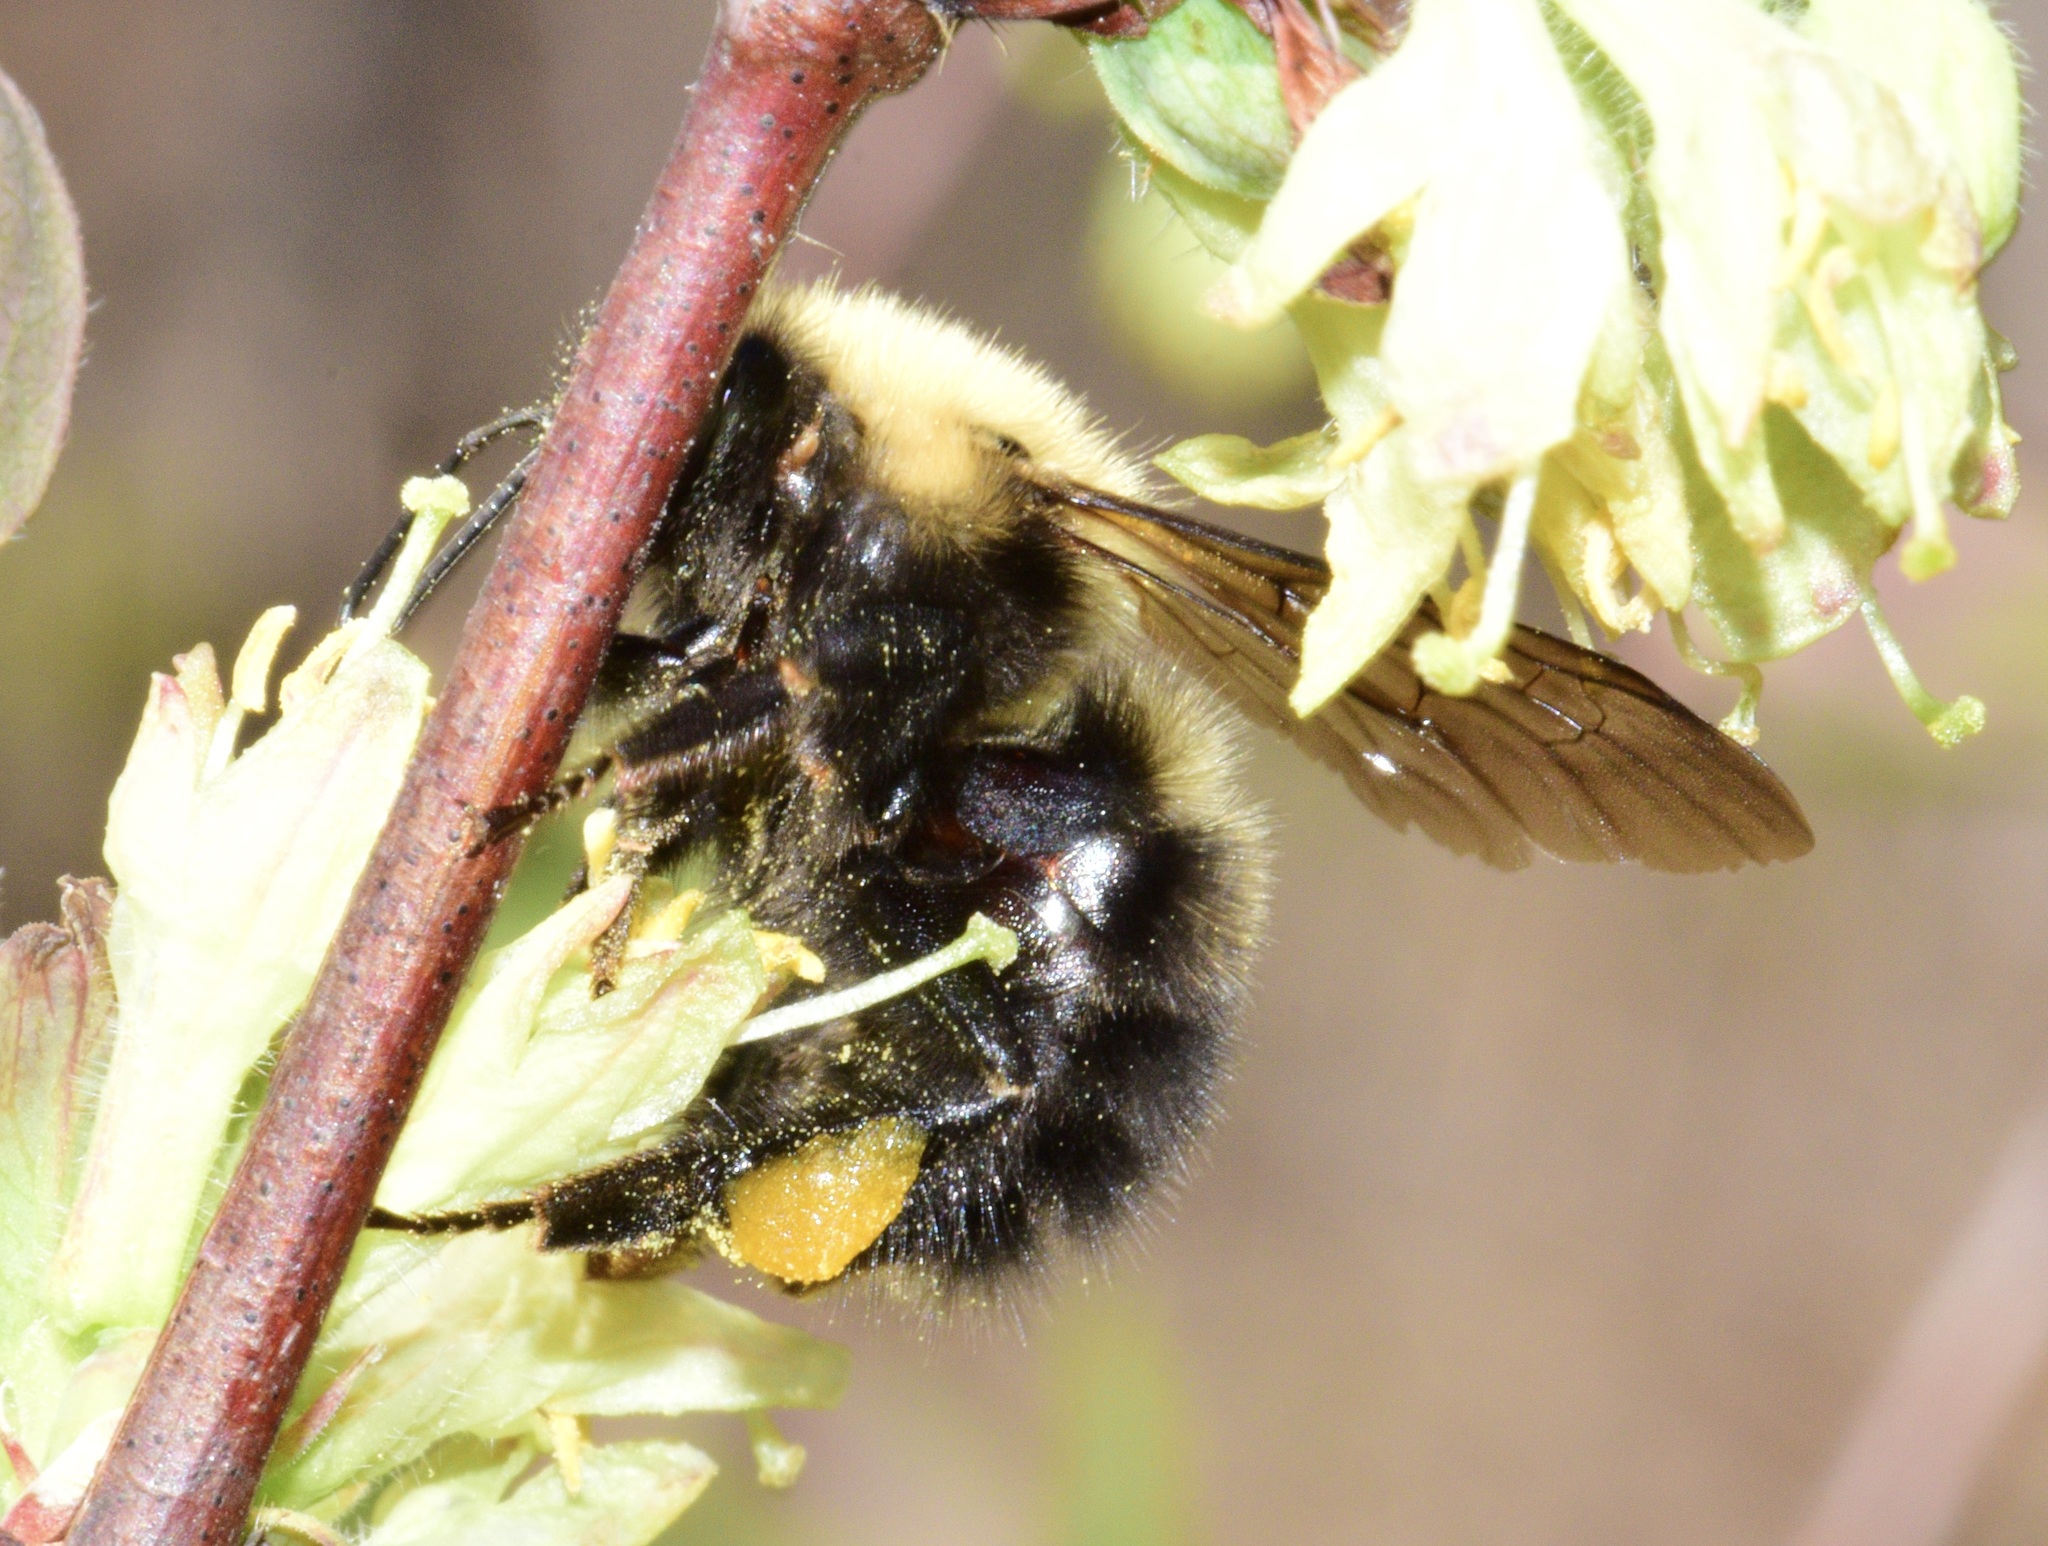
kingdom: Animalia
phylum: Arthropoda
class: Insecta
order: Hymenoptera
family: Apidae
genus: Bombus
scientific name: Bombus perplexus
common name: Confusing bumble bee
